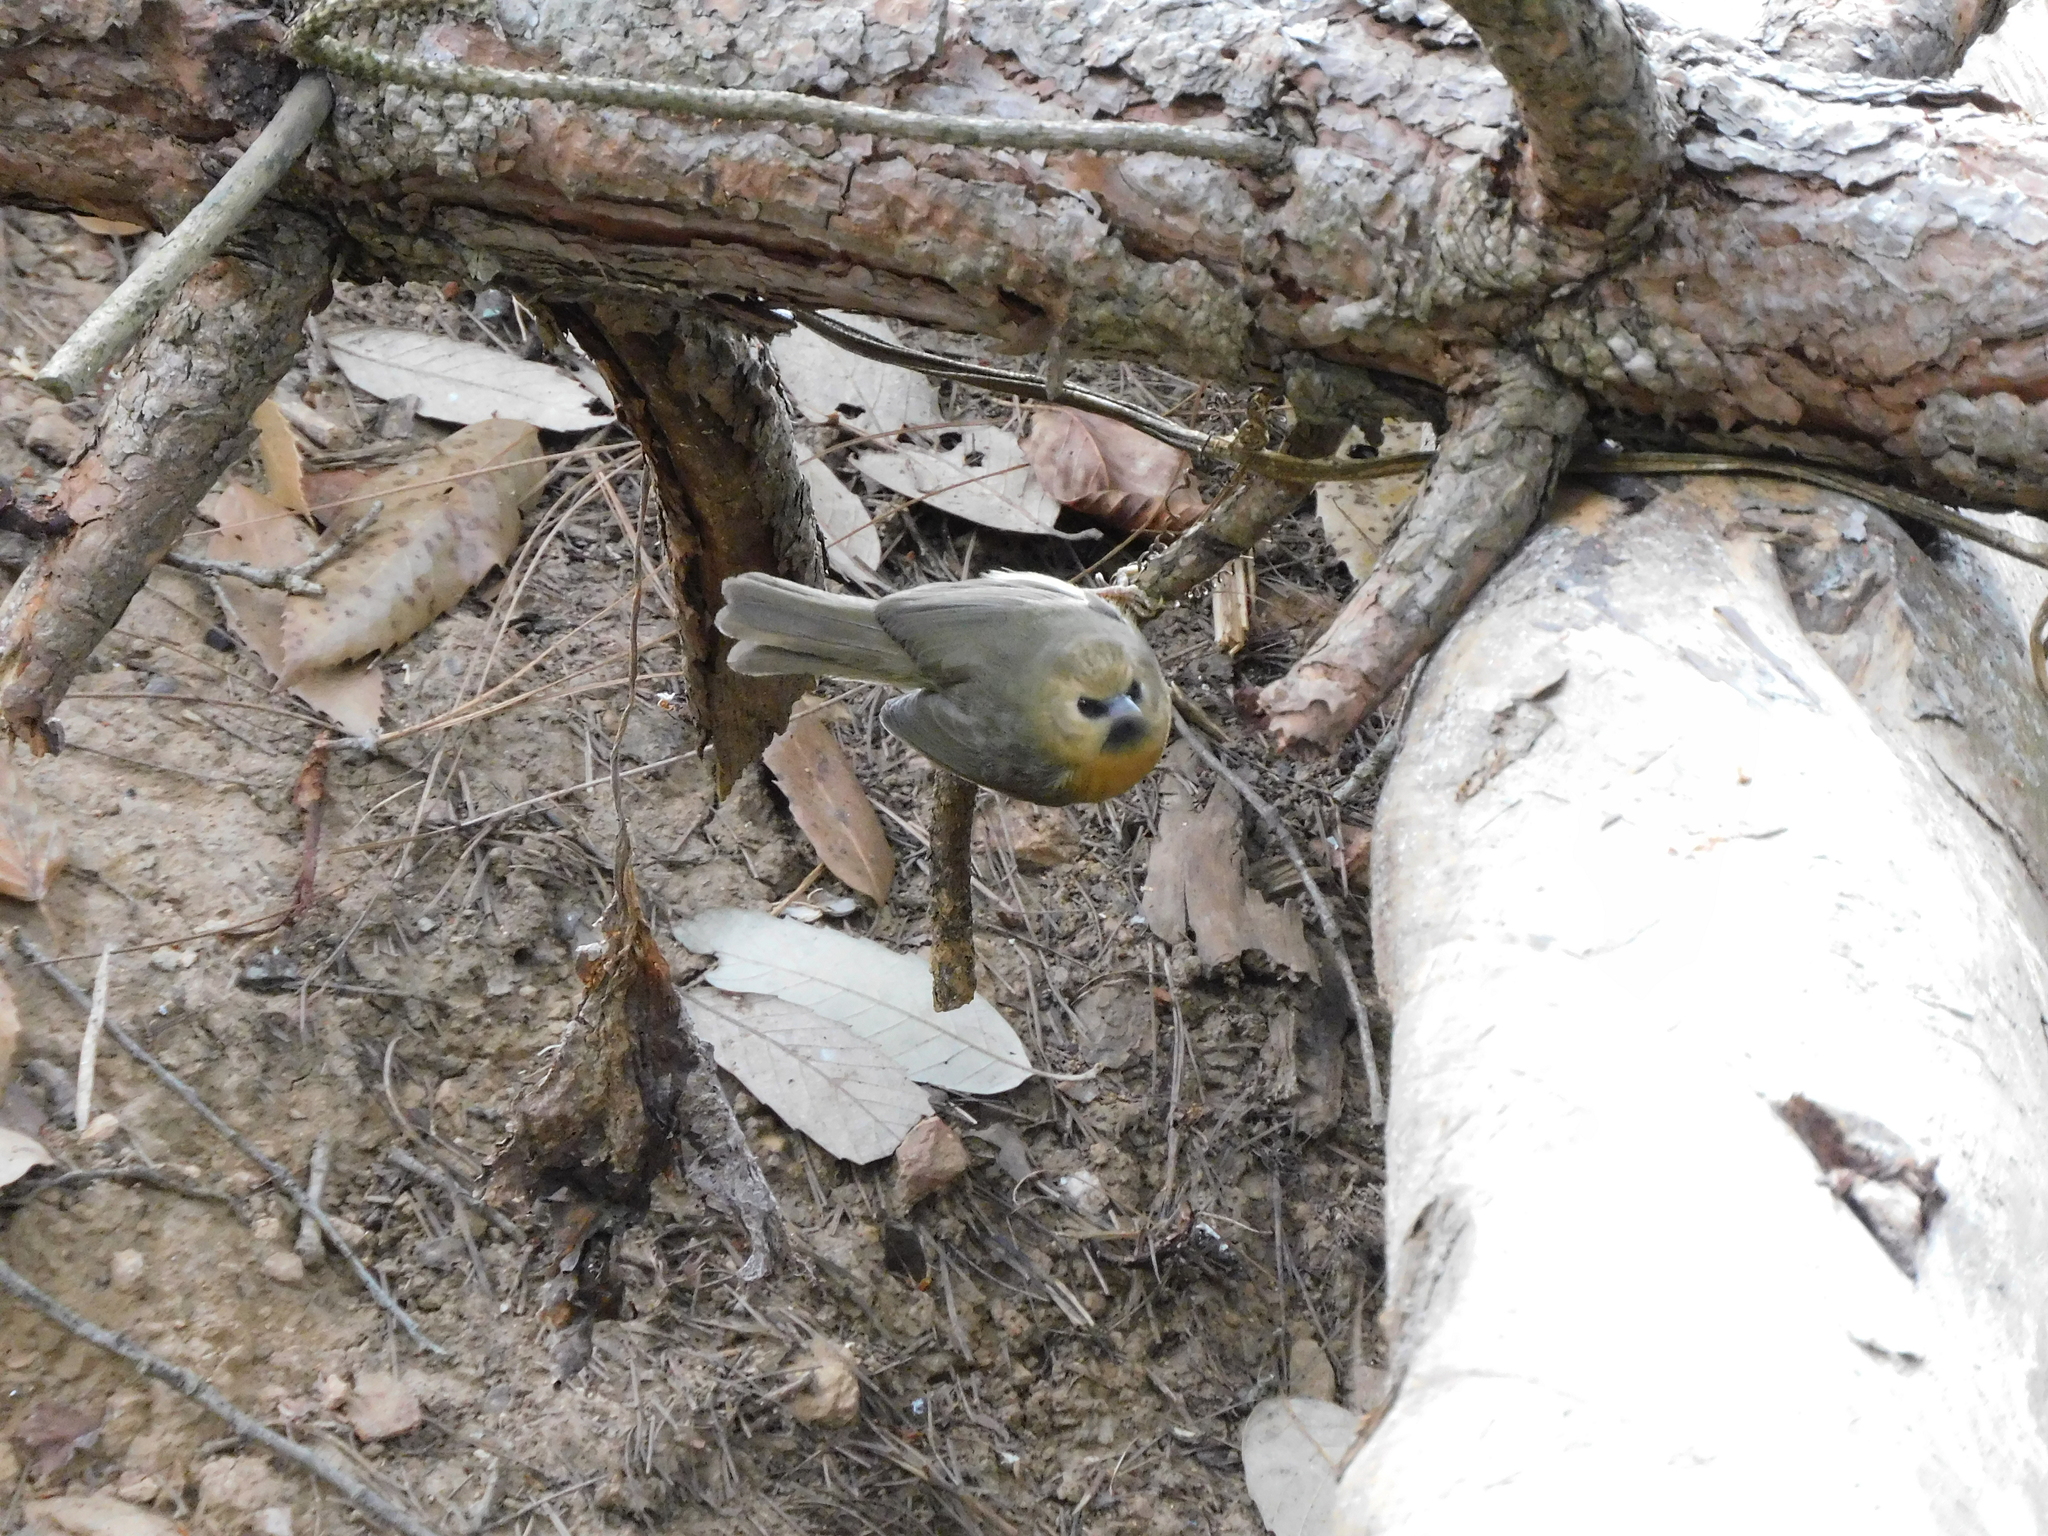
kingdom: Animalia
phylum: Chordata
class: Aves
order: Passeriformes
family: Timaliidae
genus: Stachyridopsis
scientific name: Stachyridopsis pyrrhops
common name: Black-chinned babbler
